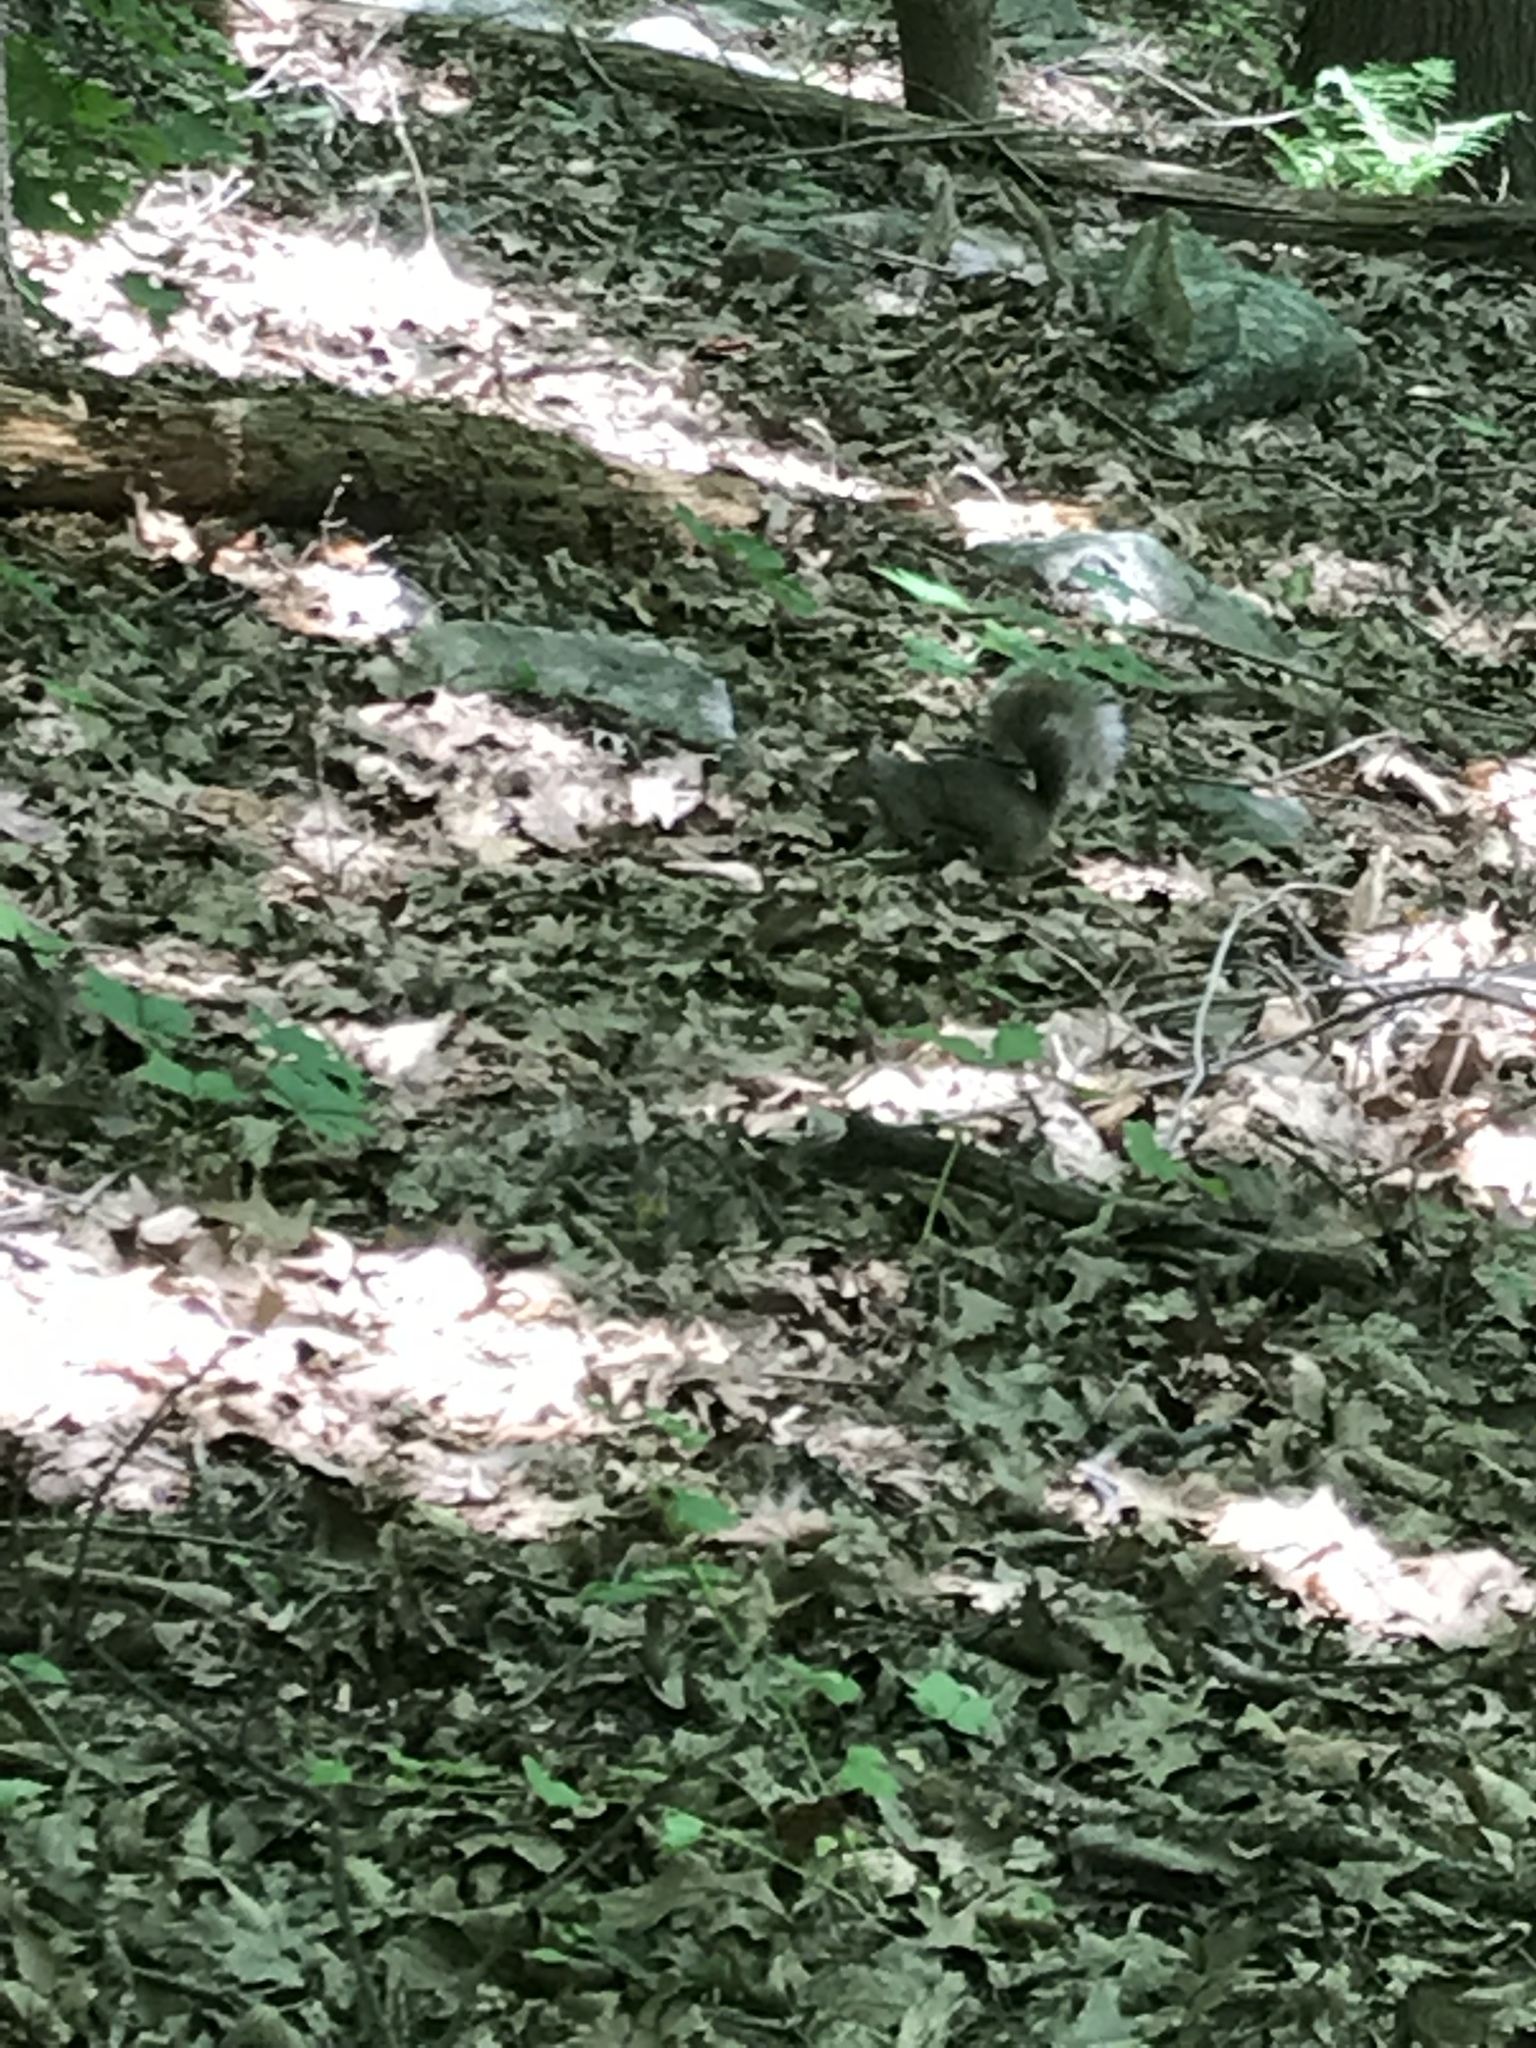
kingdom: Animalia
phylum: Chordata
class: Mammalia
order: Rodentia
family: Sciuridae
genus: Sciurus
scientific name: Sciurus carolinensis
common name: Eastern gray squirrel
